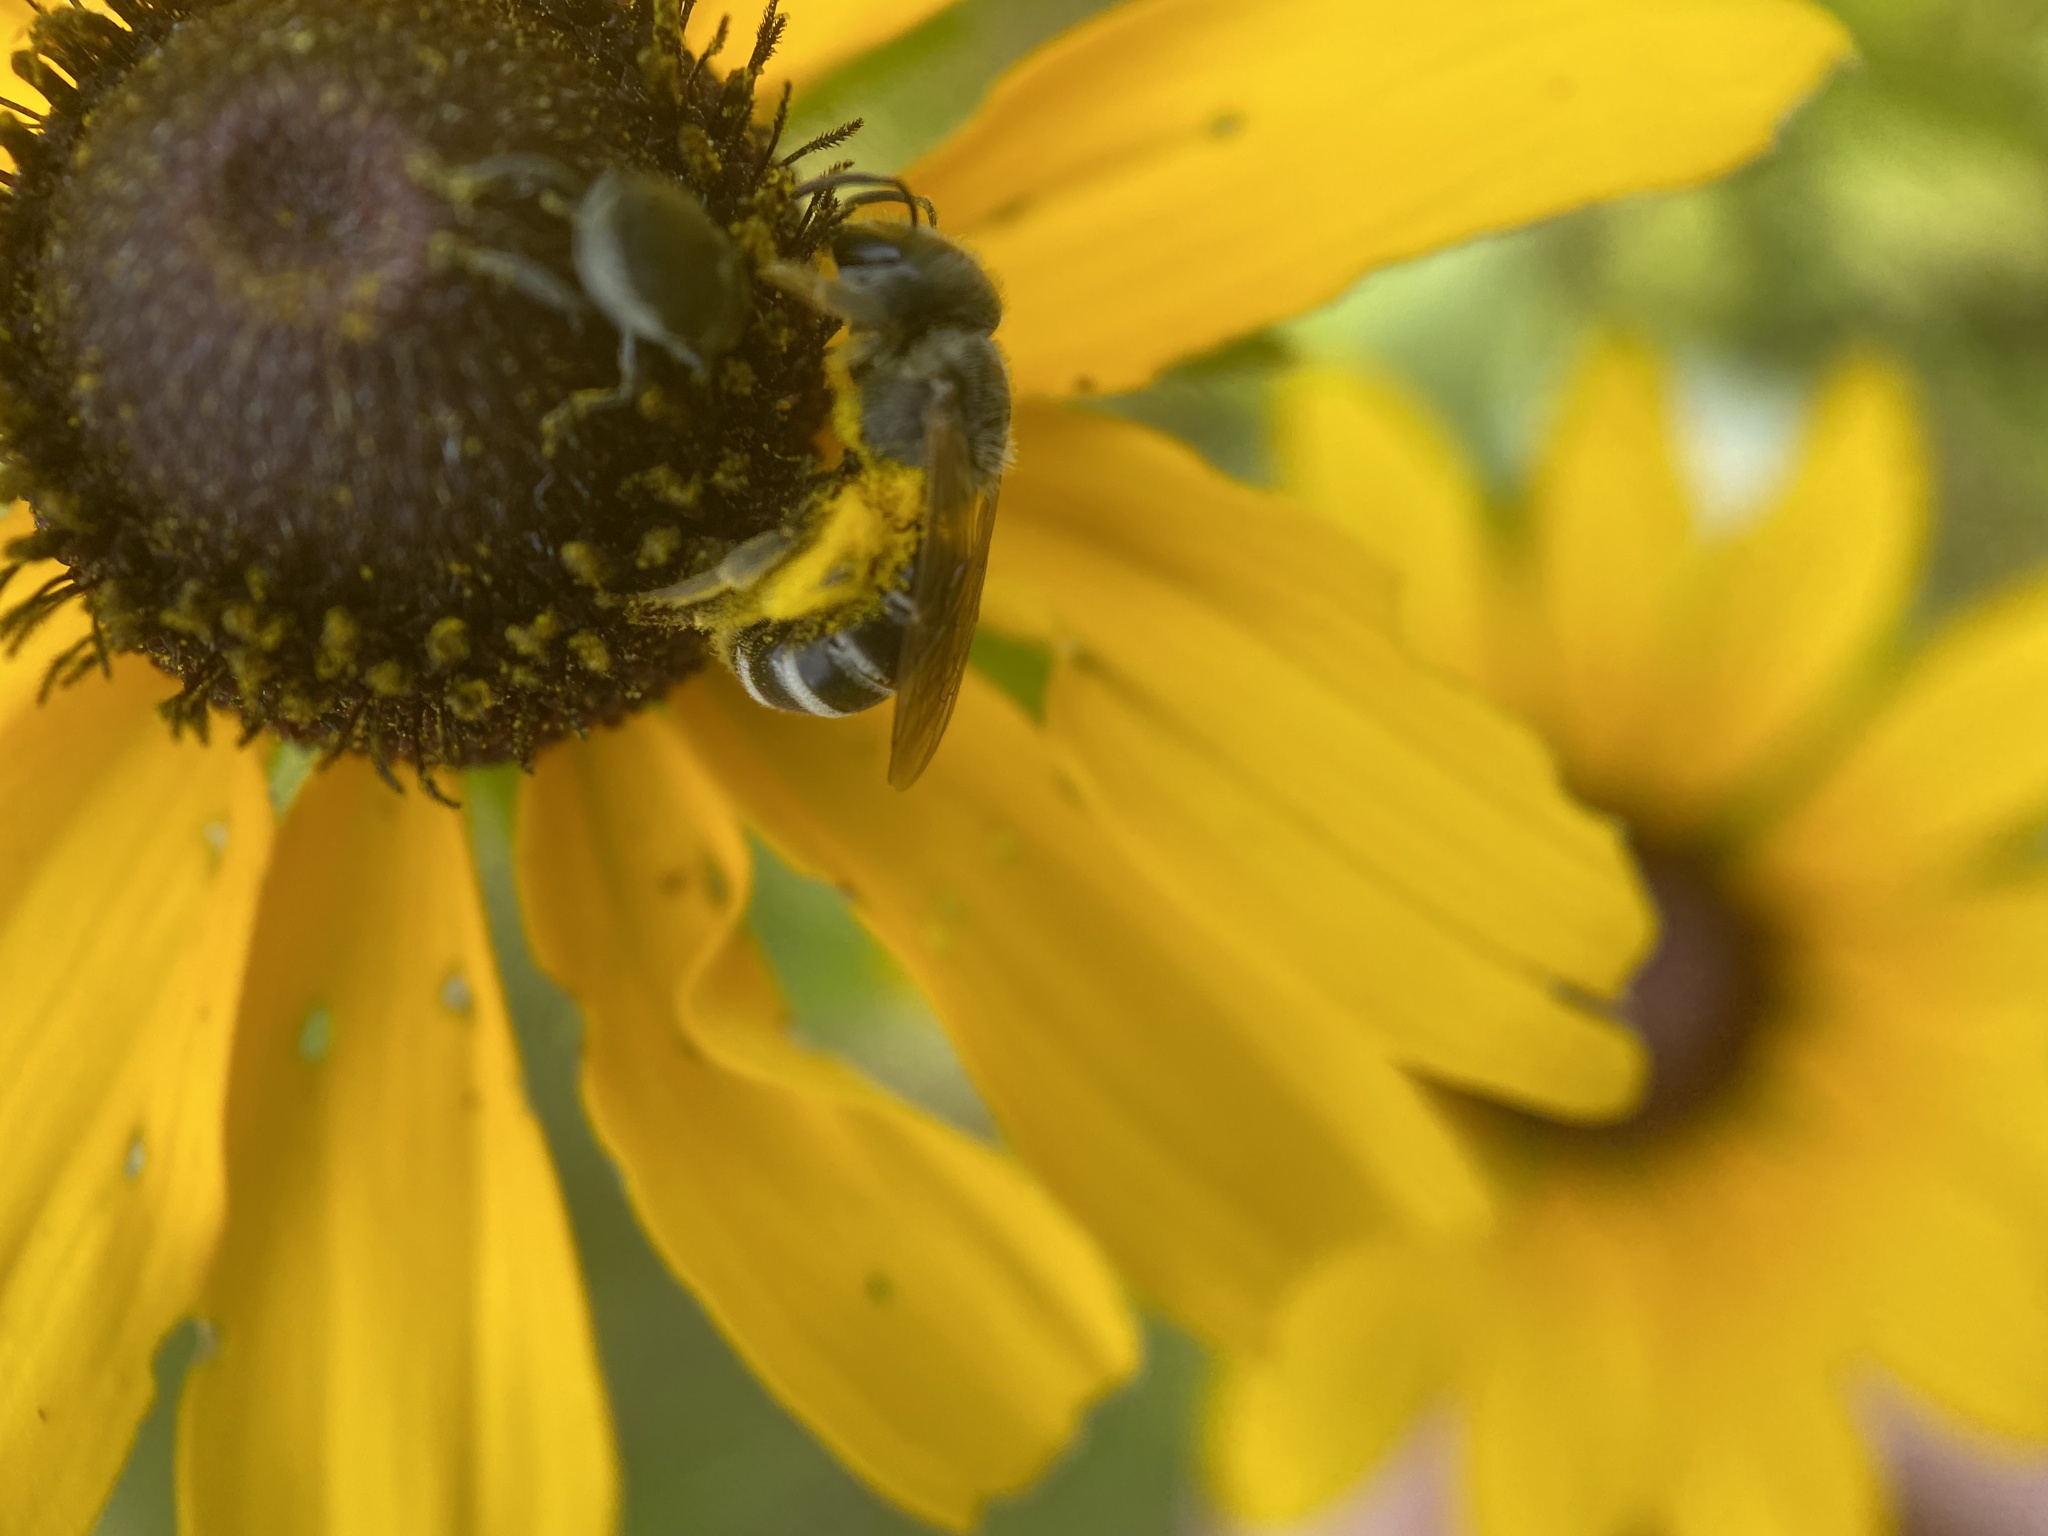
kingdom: Animalia
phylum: Arthropoda
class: Insecta
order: Hymenoptera
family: Halictidae
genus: Halictus
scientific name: Halictus ligatus
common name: Ligated furrow bee
